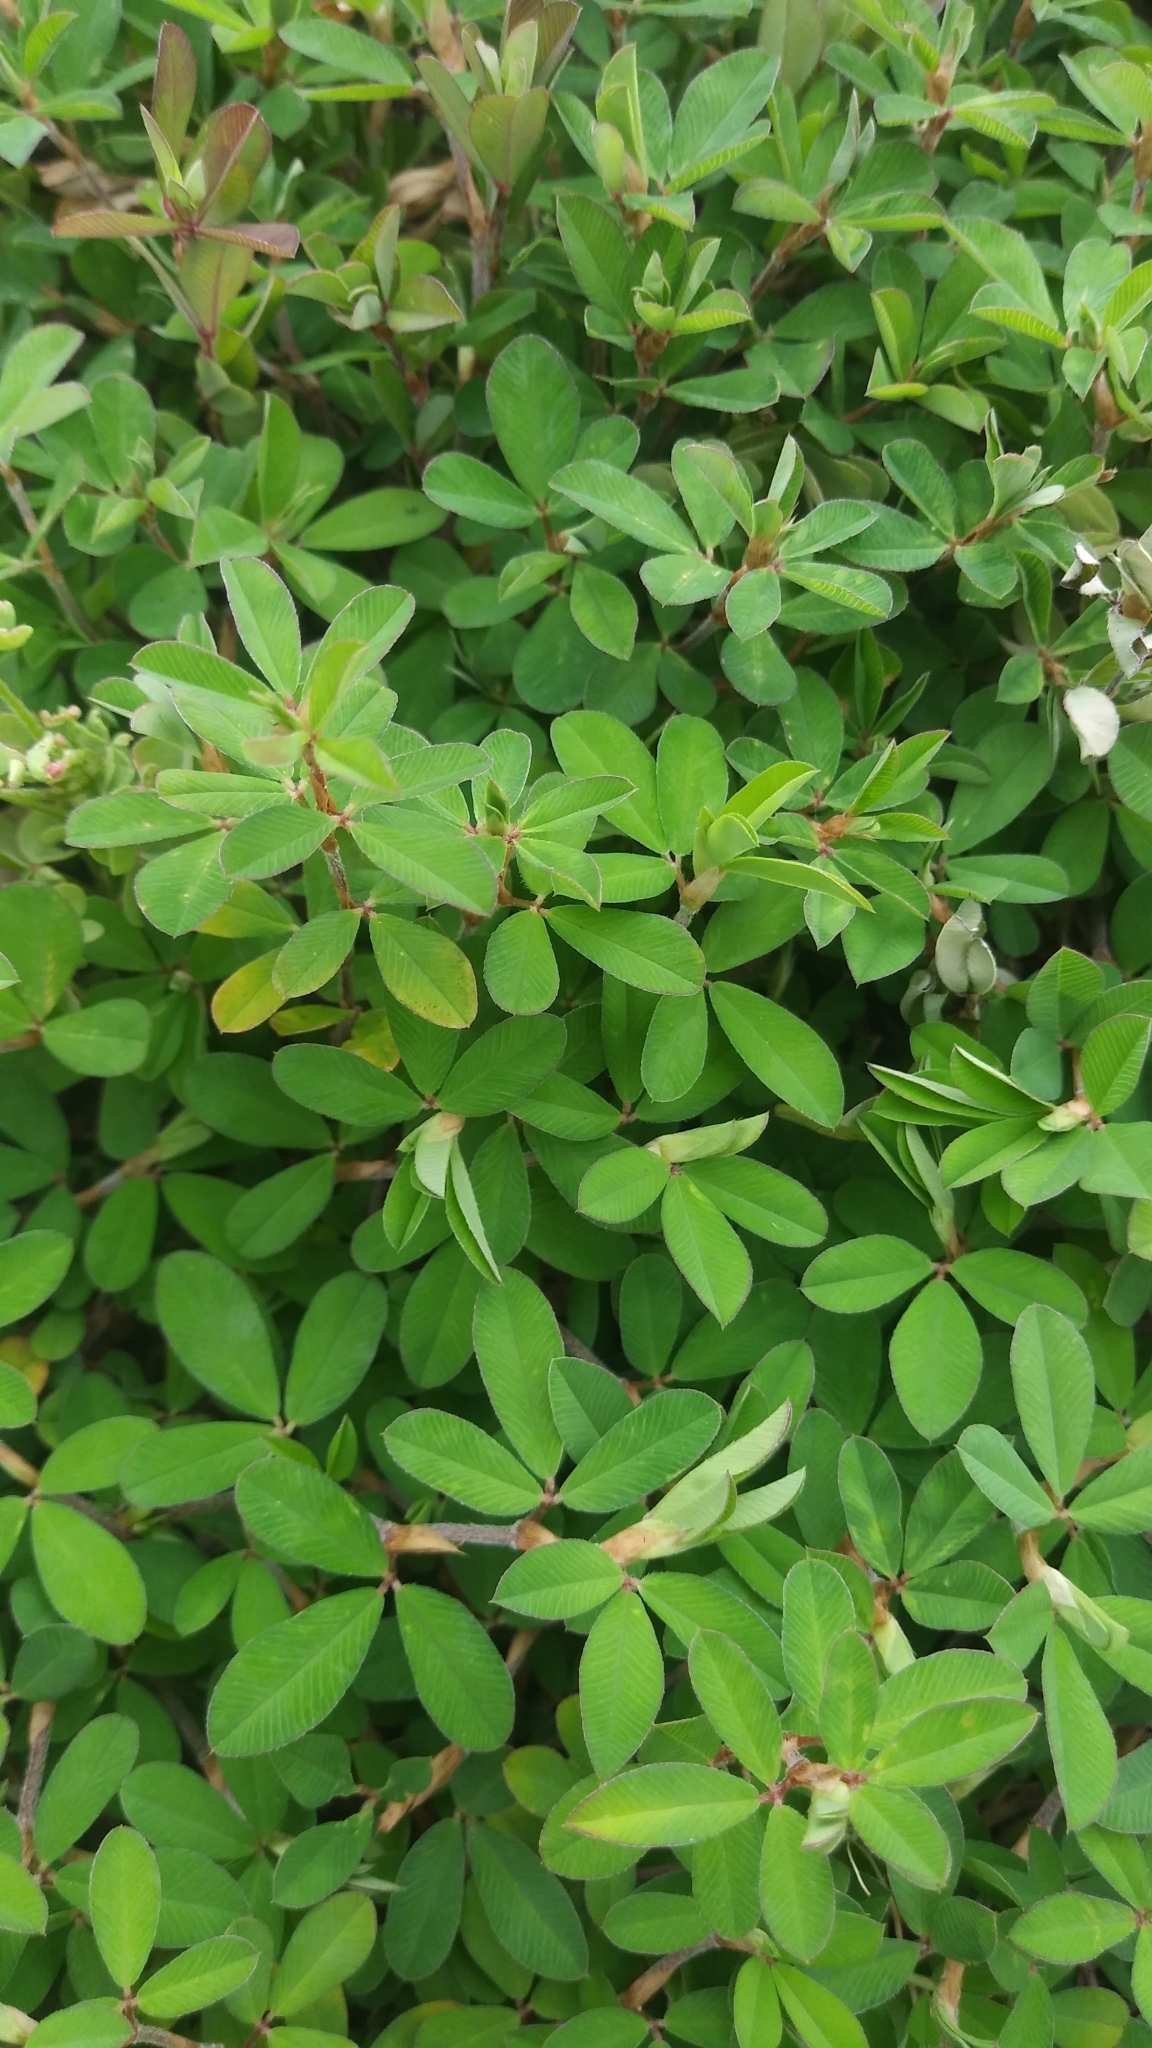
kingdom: Plantae
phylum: Tracheophyta
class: Magnoliopsida
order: Fabales
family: Fabaceae
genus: Kummerowia
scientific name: Kummerowia striata
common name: Japanese clover
